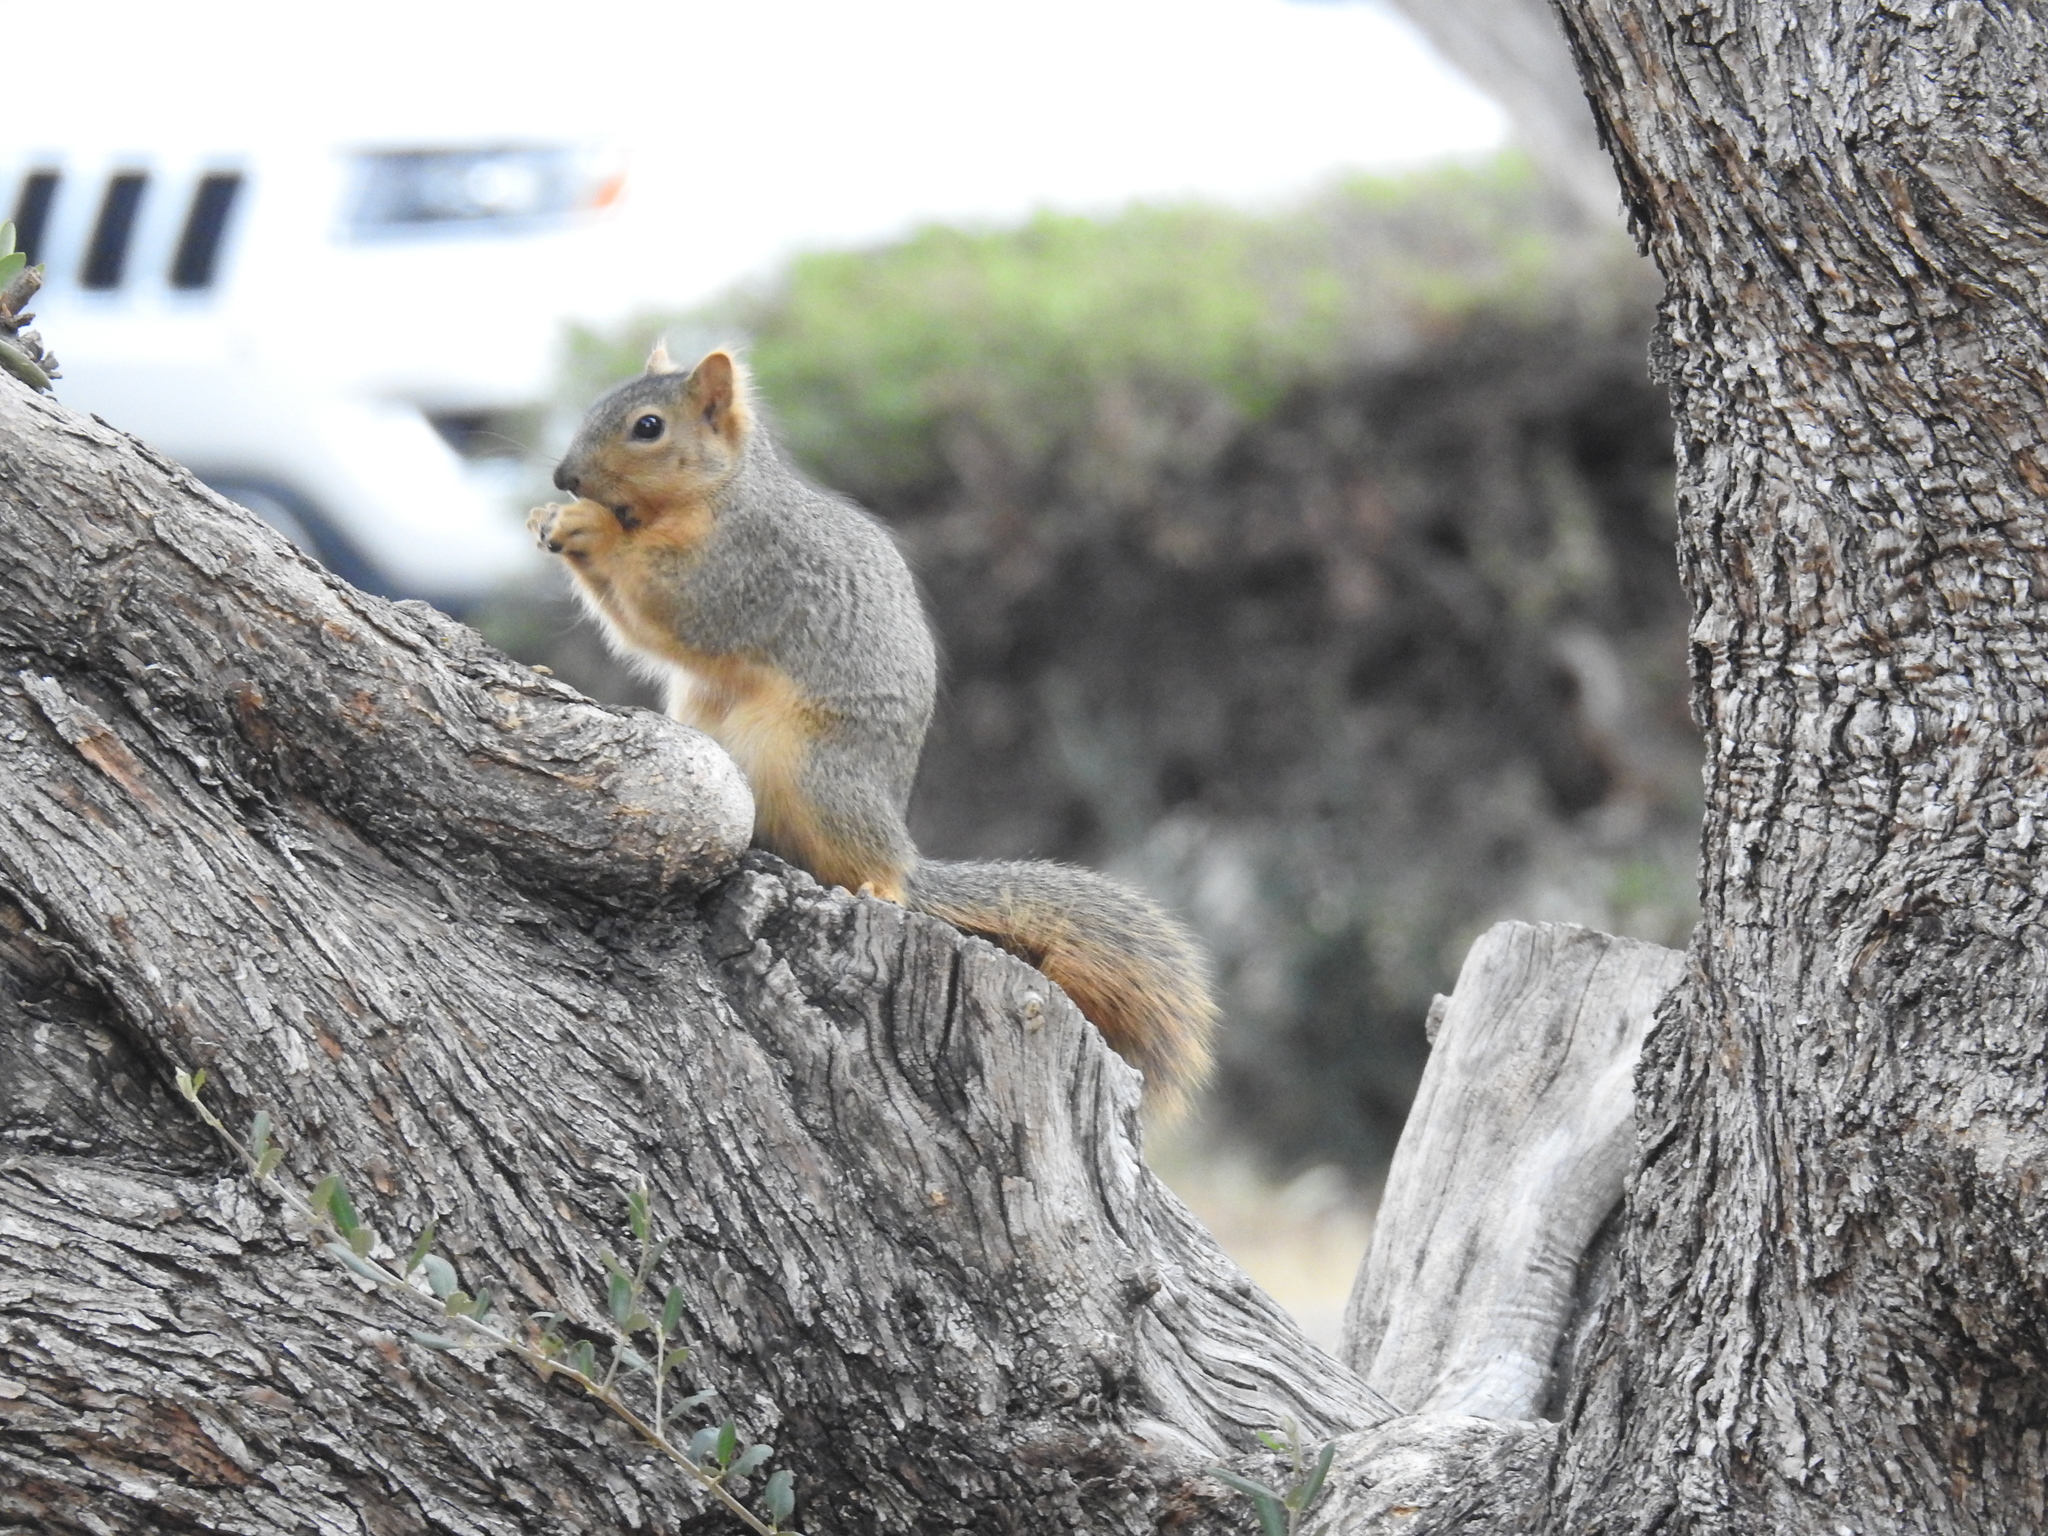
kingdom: Animalia
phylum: Chordata
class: Mammalia
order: Rodentia
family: Sciuridae
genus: Sciurus
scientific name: Sciurus niger
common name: Fox squirrel
